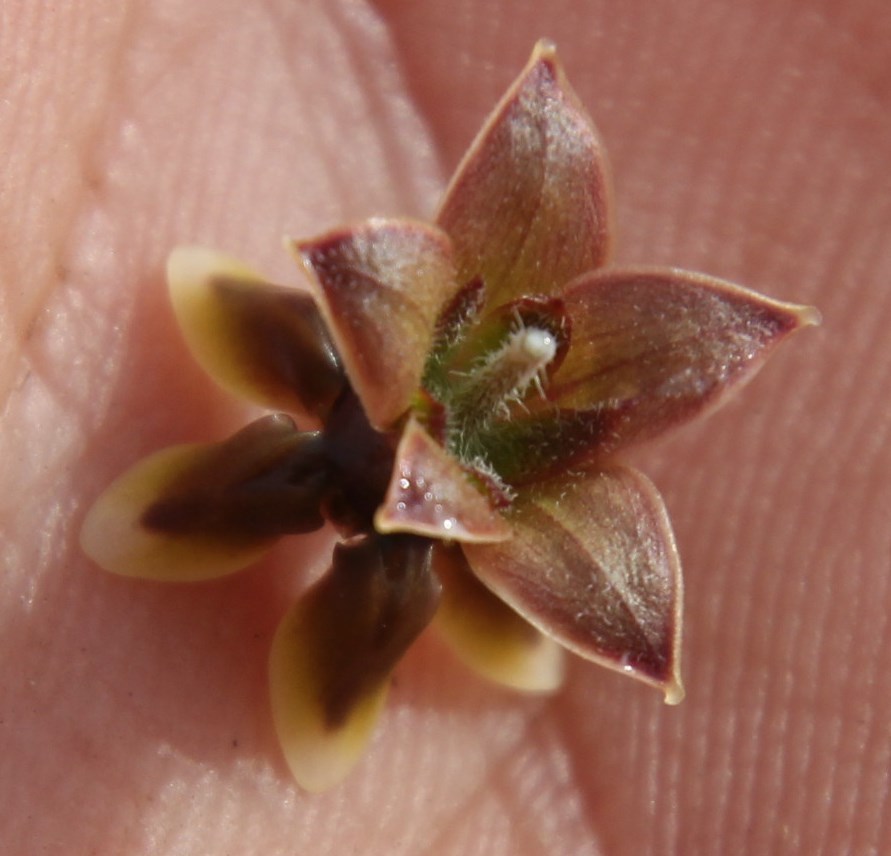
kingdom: Plantae
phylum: Tracheophyta
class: Magnoliopsida
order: Gentianales
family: Apocynaceae
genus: Asclepias
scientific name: Asclepias crispa
